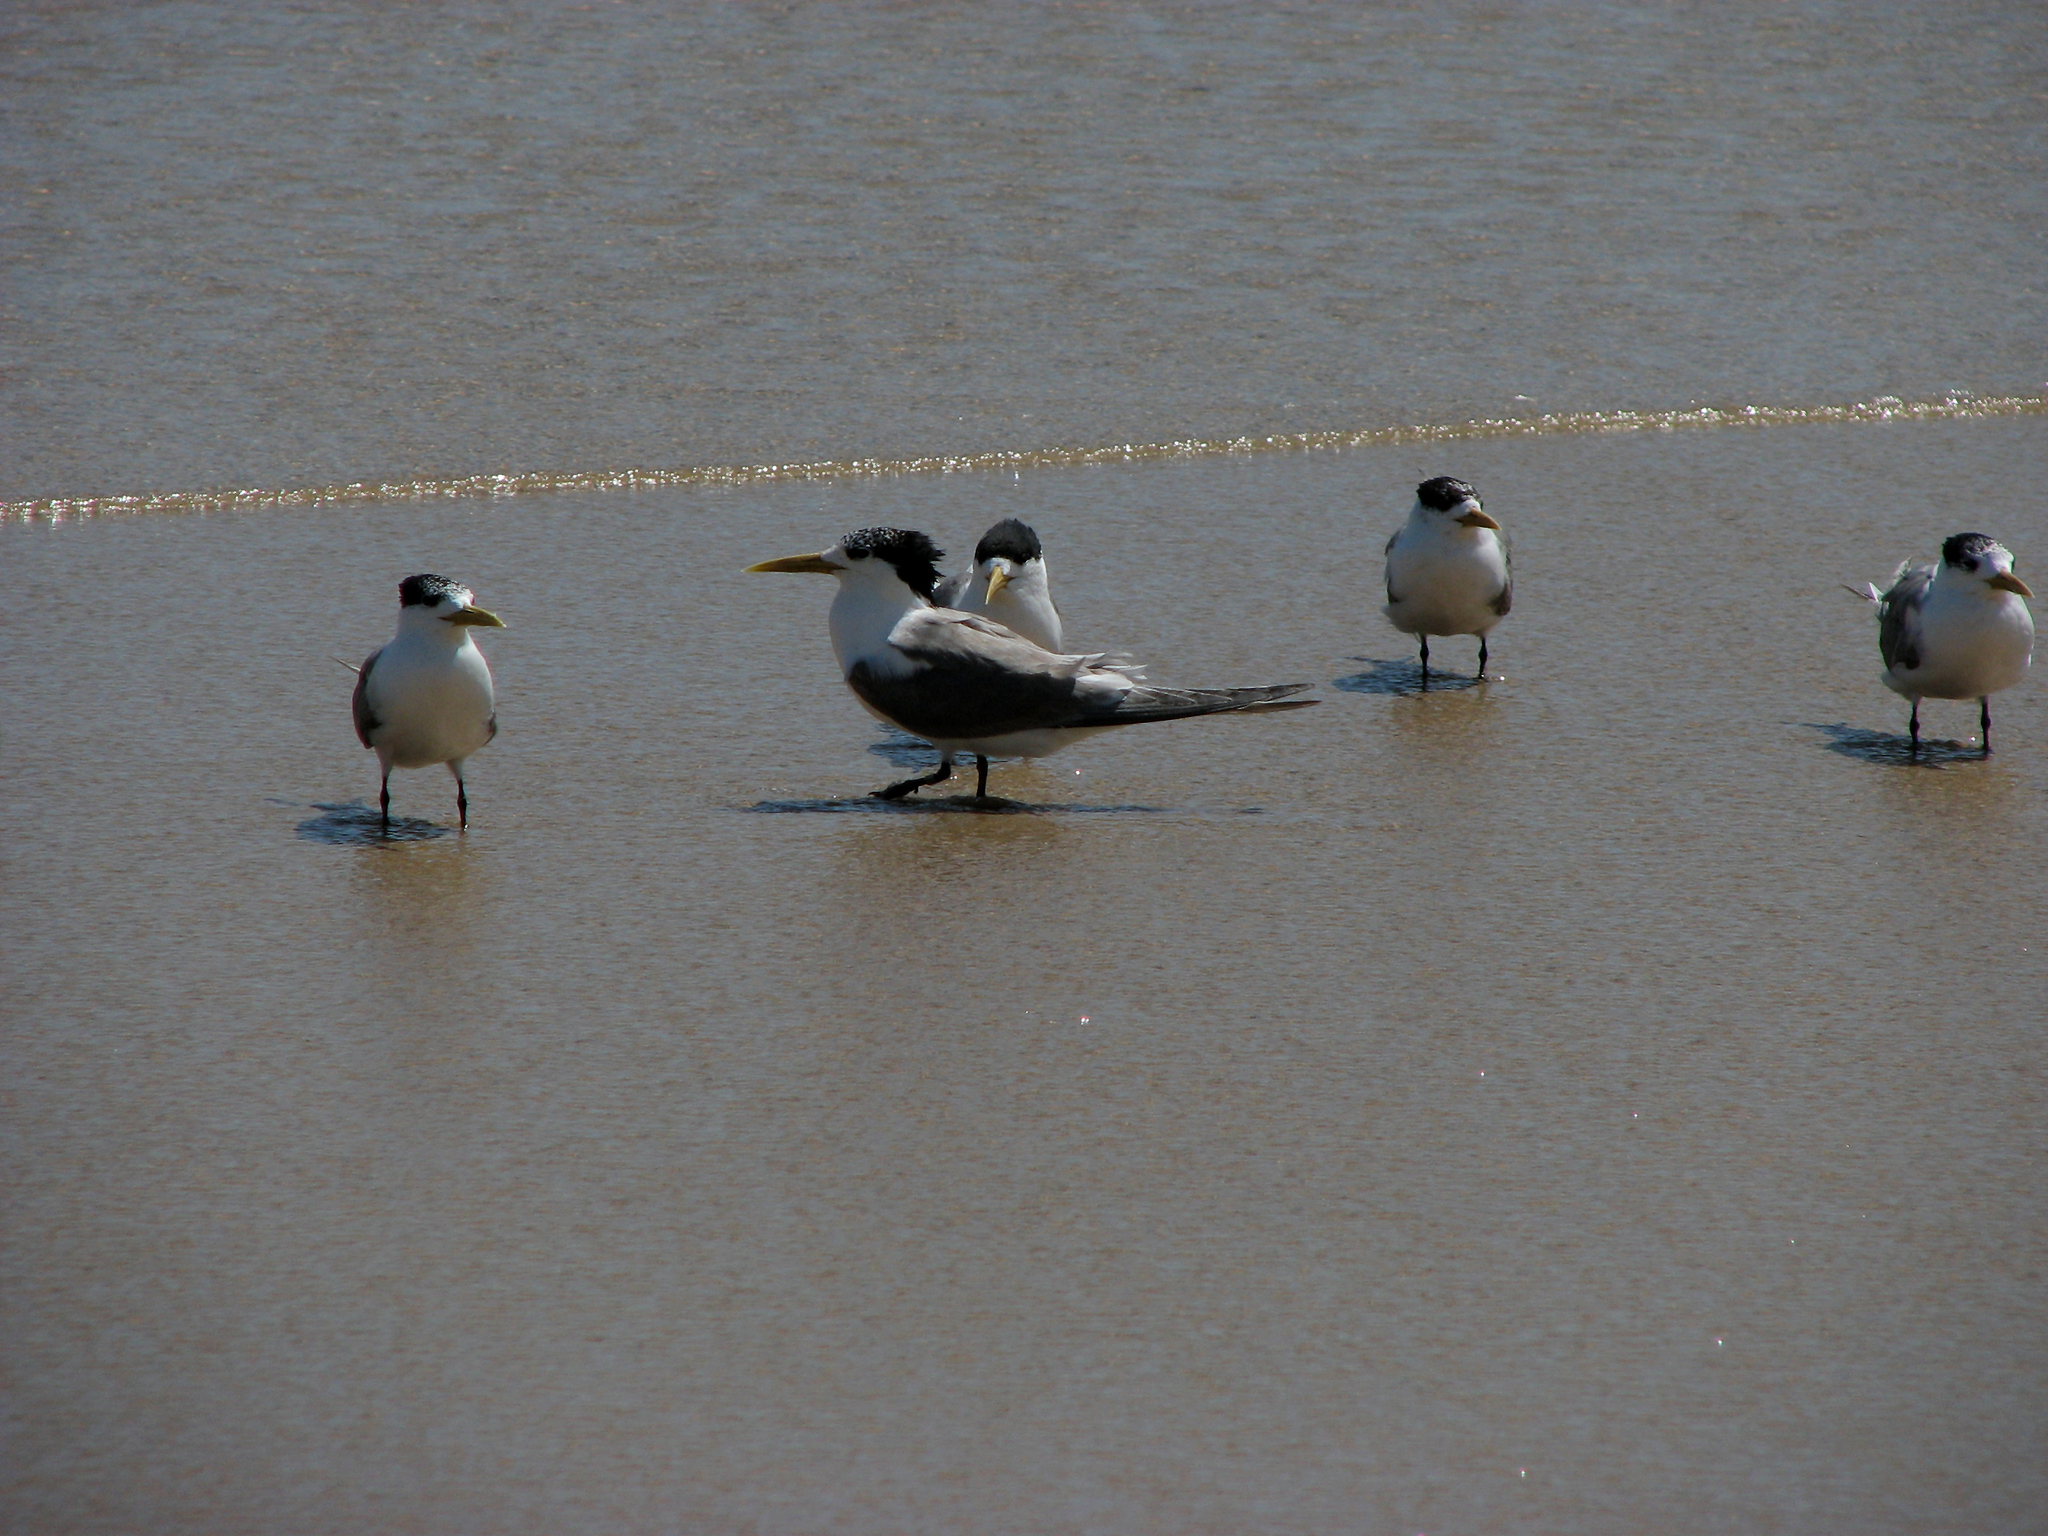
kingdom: Animalia
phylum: Chordata
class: Aves
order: Charadriiformes
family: Laridae
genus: Thalasseus
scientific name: Thalasseus bergii
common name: Greater crested tern
